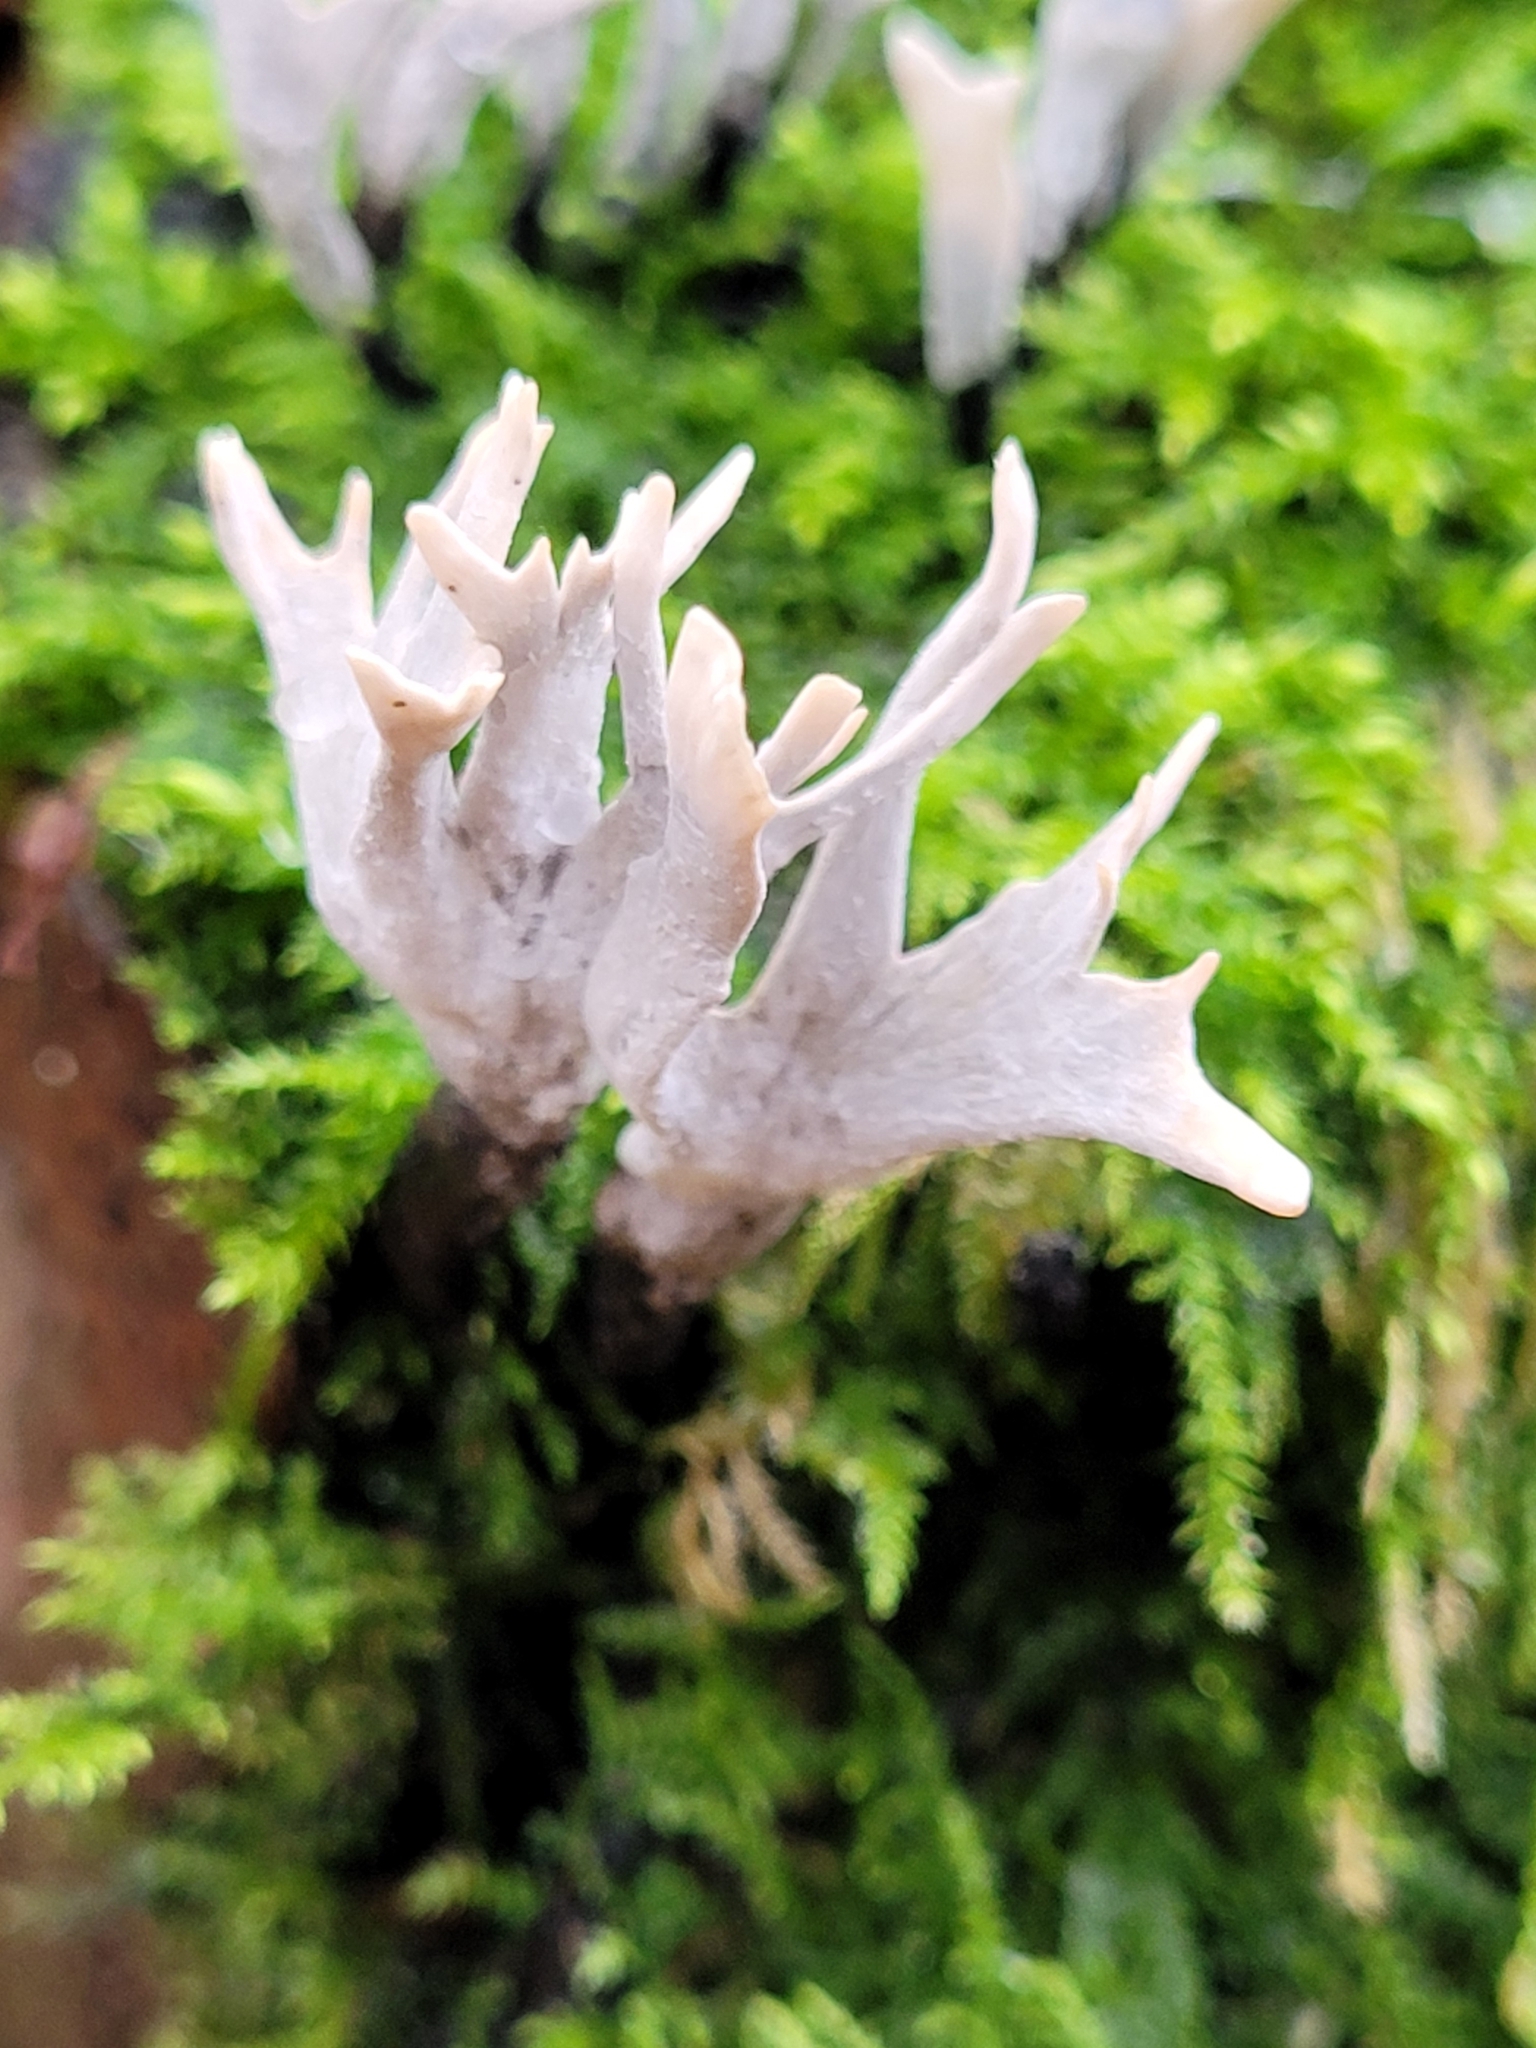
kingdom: Fungi
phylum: Ascomycota
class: Sordariomycetes
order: Xylariales
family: Xylariaceae
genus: Xylaria
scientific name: Xylaria hypoxylon
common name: Candle-snuff fungus
